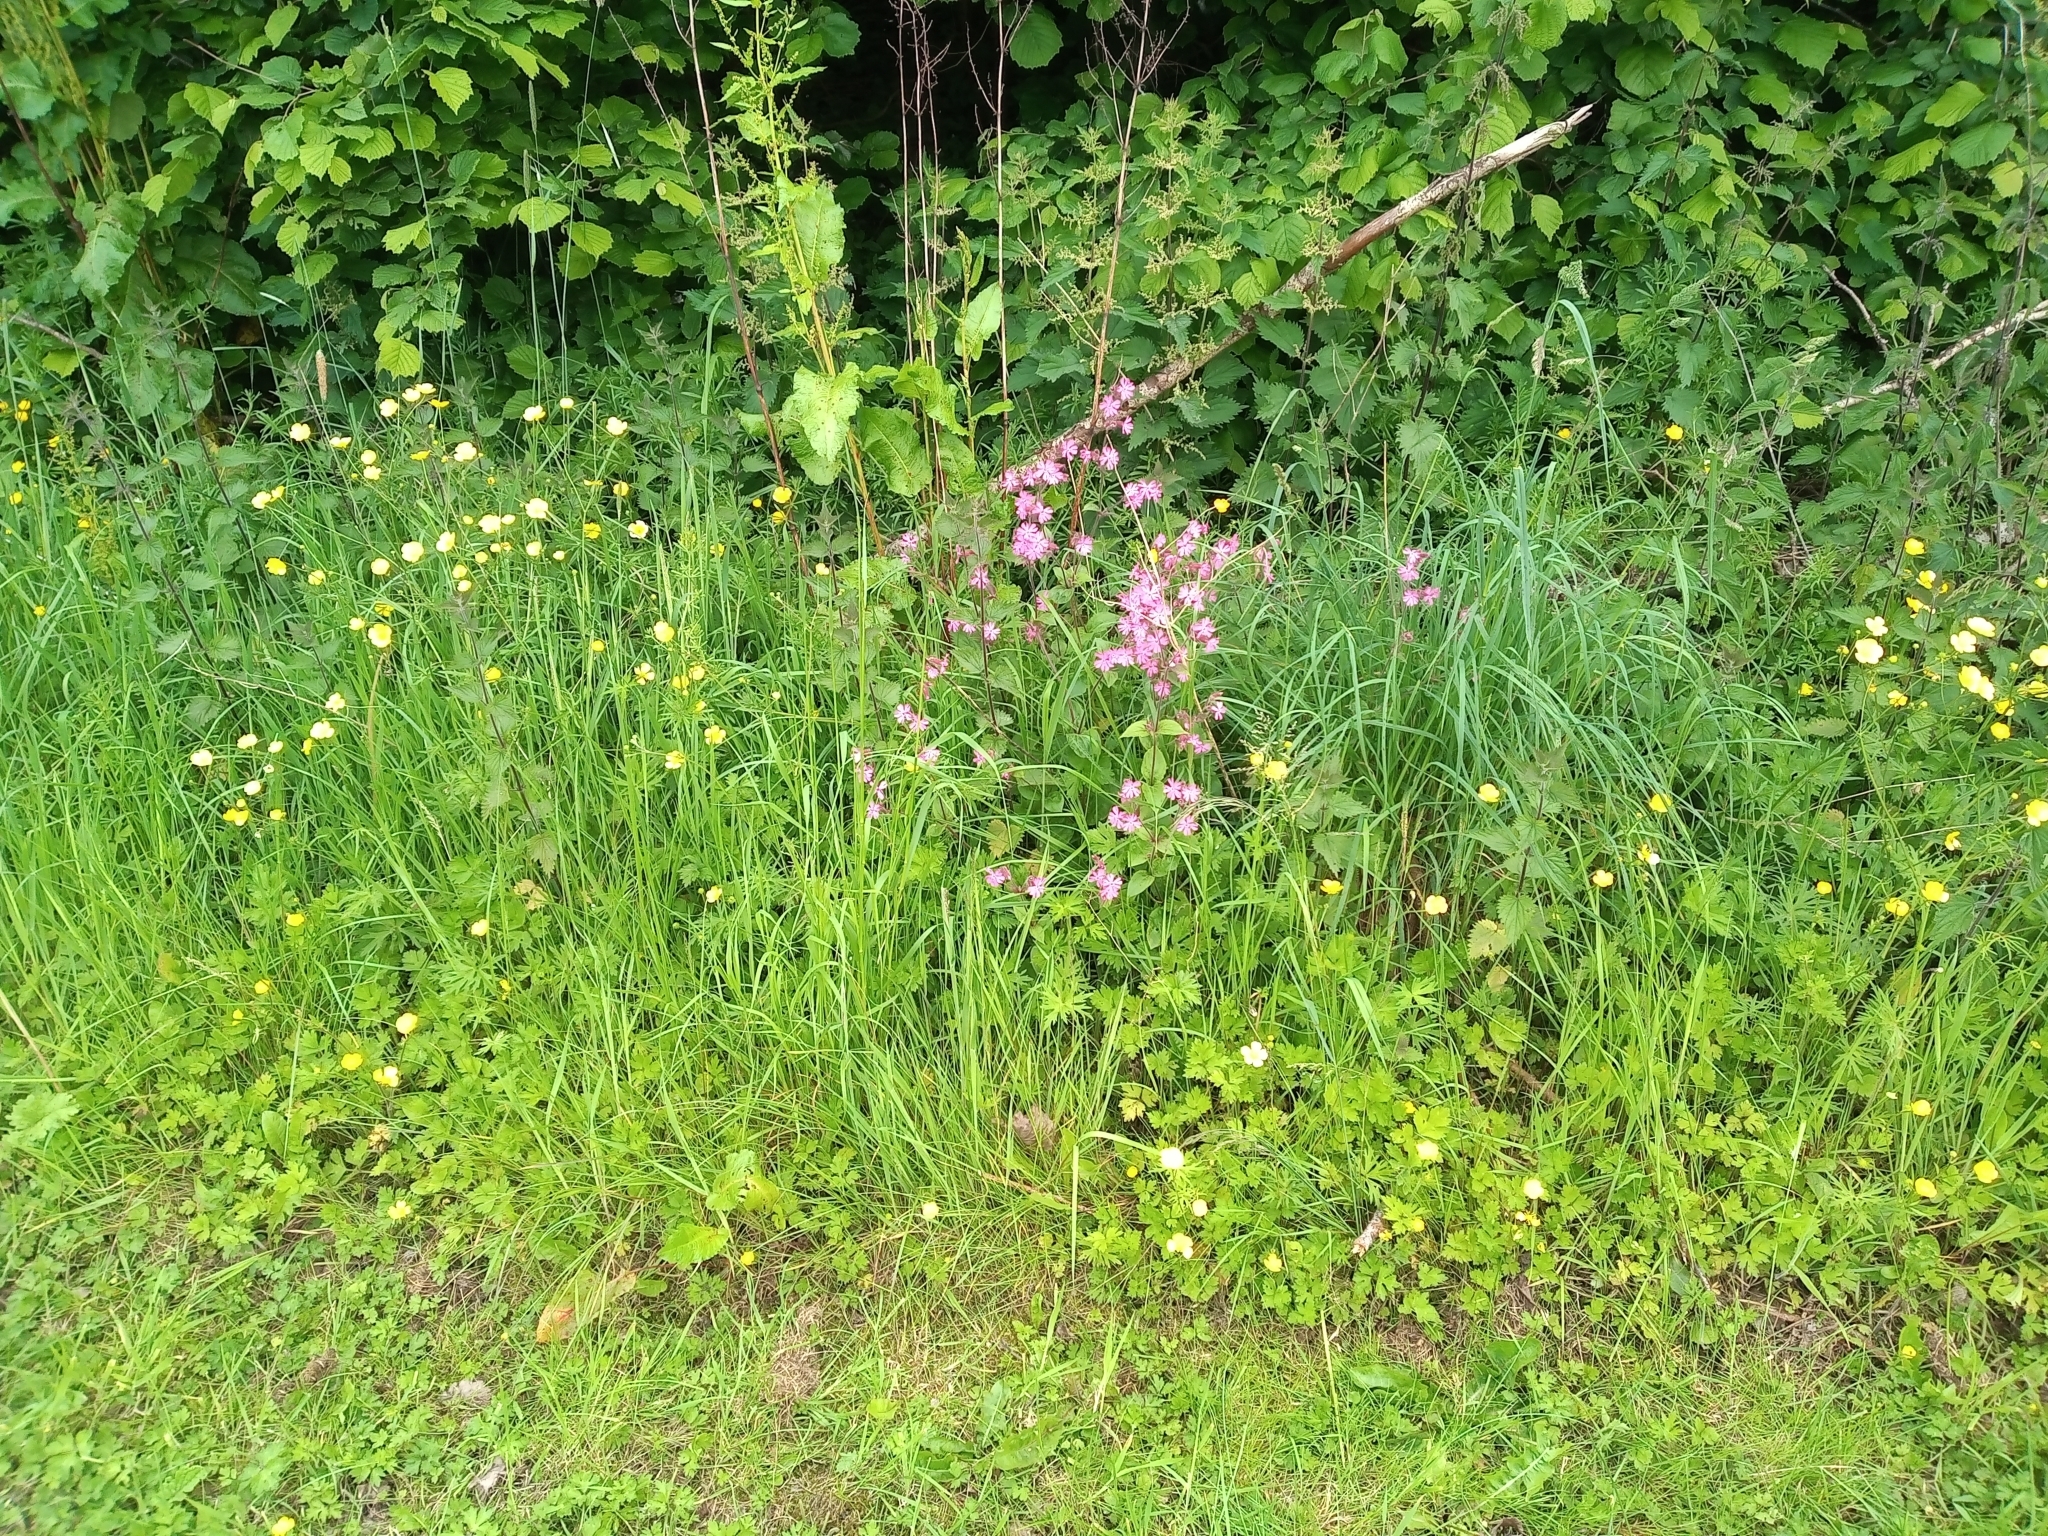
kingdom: Plantae
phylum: Tracheophyta
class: Magnoliopsida
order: Caryophyllales
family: Caryophyllaceae
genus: Silene
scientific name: Silene dioica
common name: Red campion
